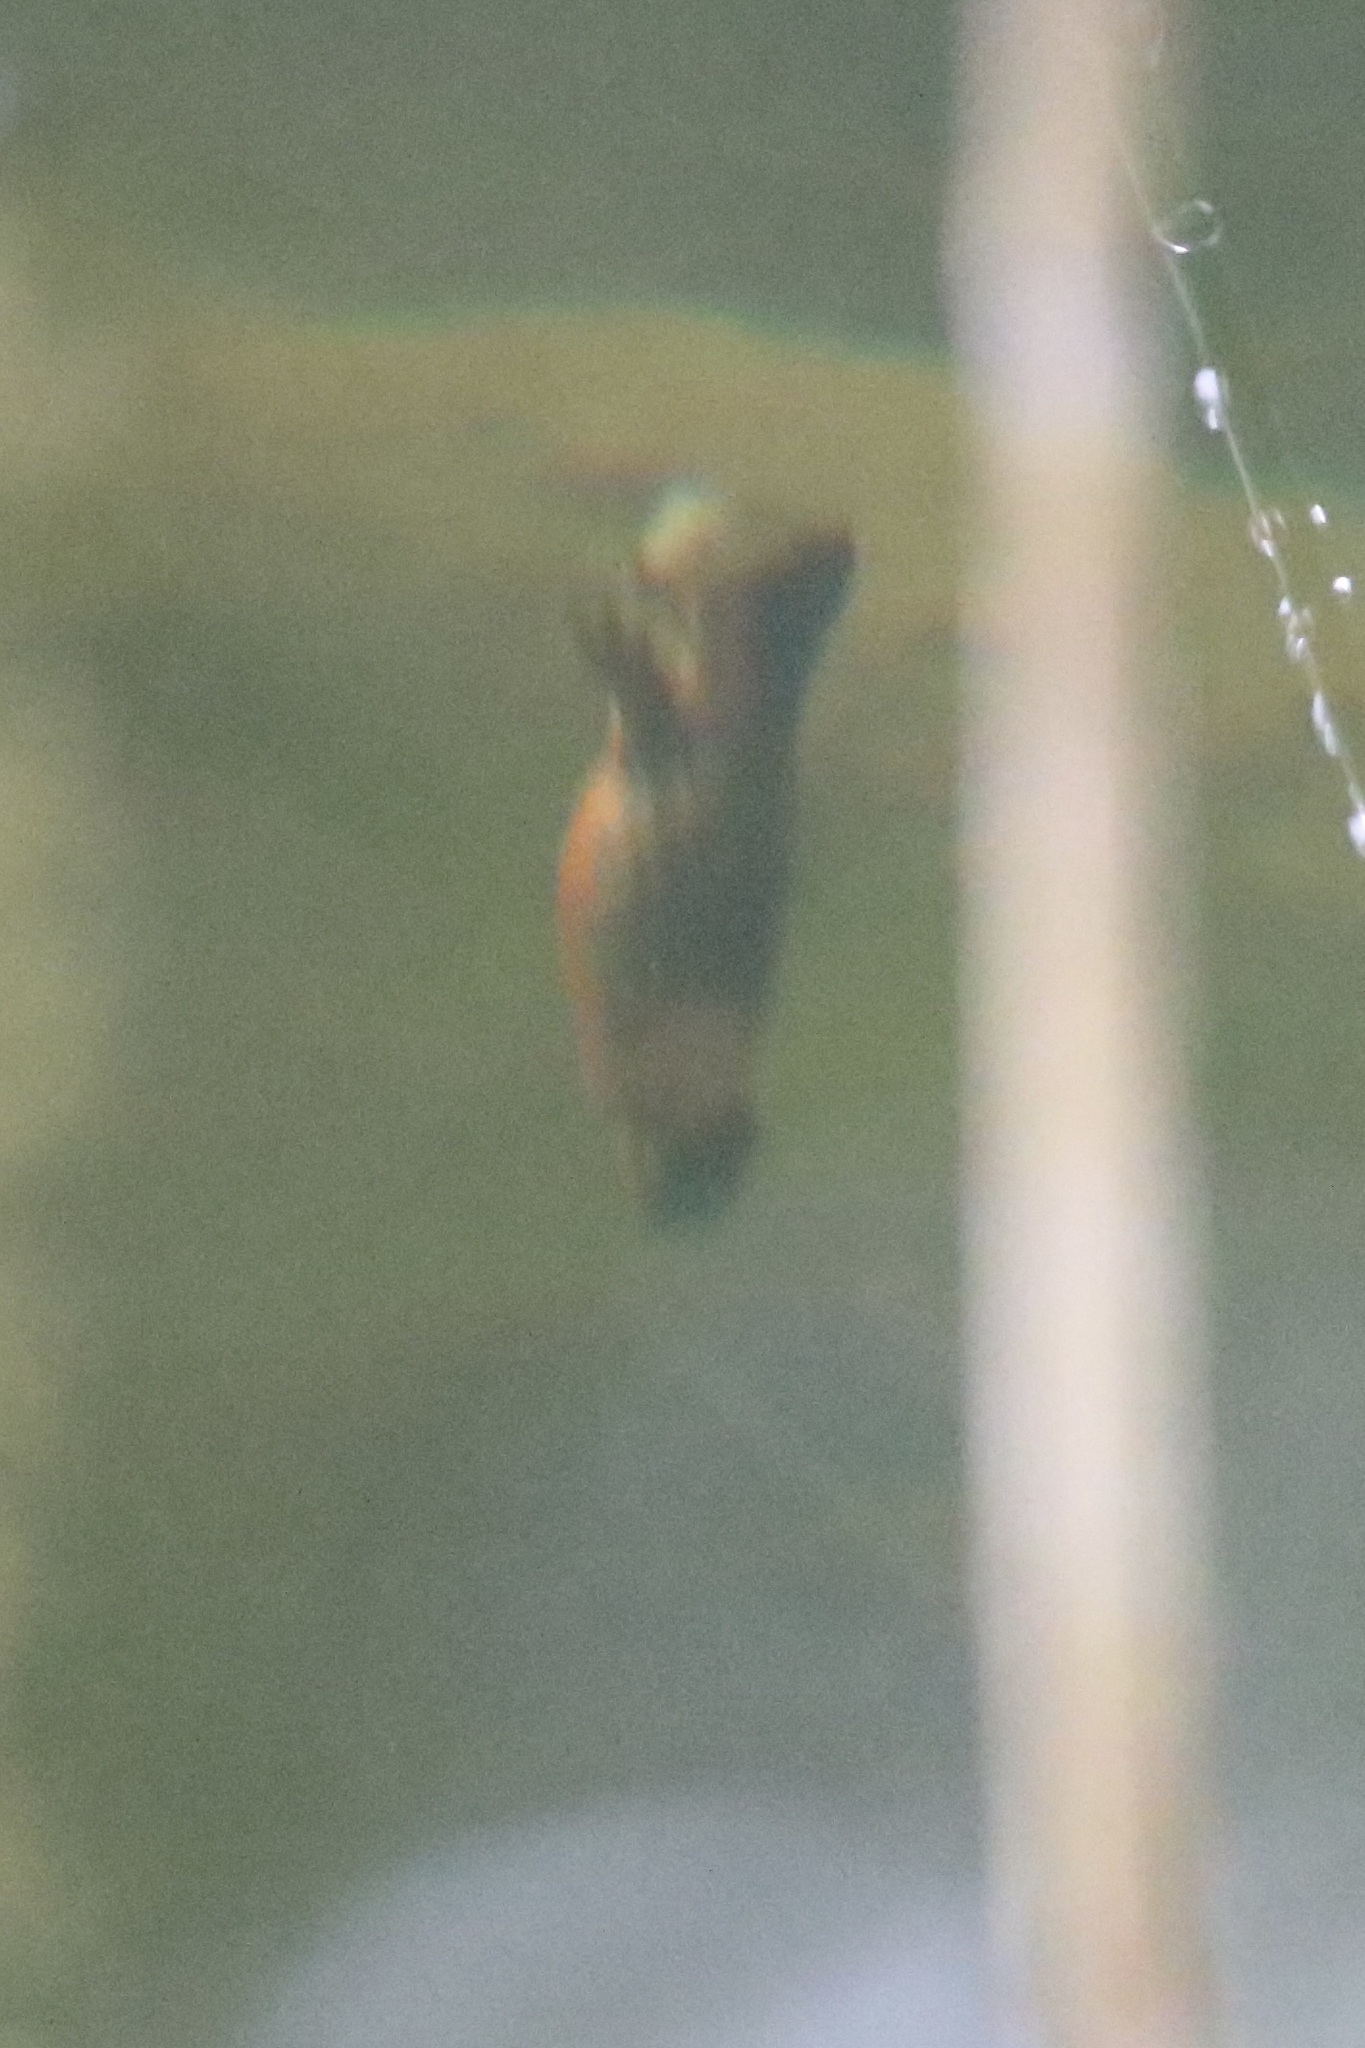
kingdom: Animalia
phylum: Chordata
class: Amphibia
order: Caudata
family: Salamandridae
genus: Ichthyosaura
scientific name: Ichthyosaura alpestris
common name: Alpine newt
